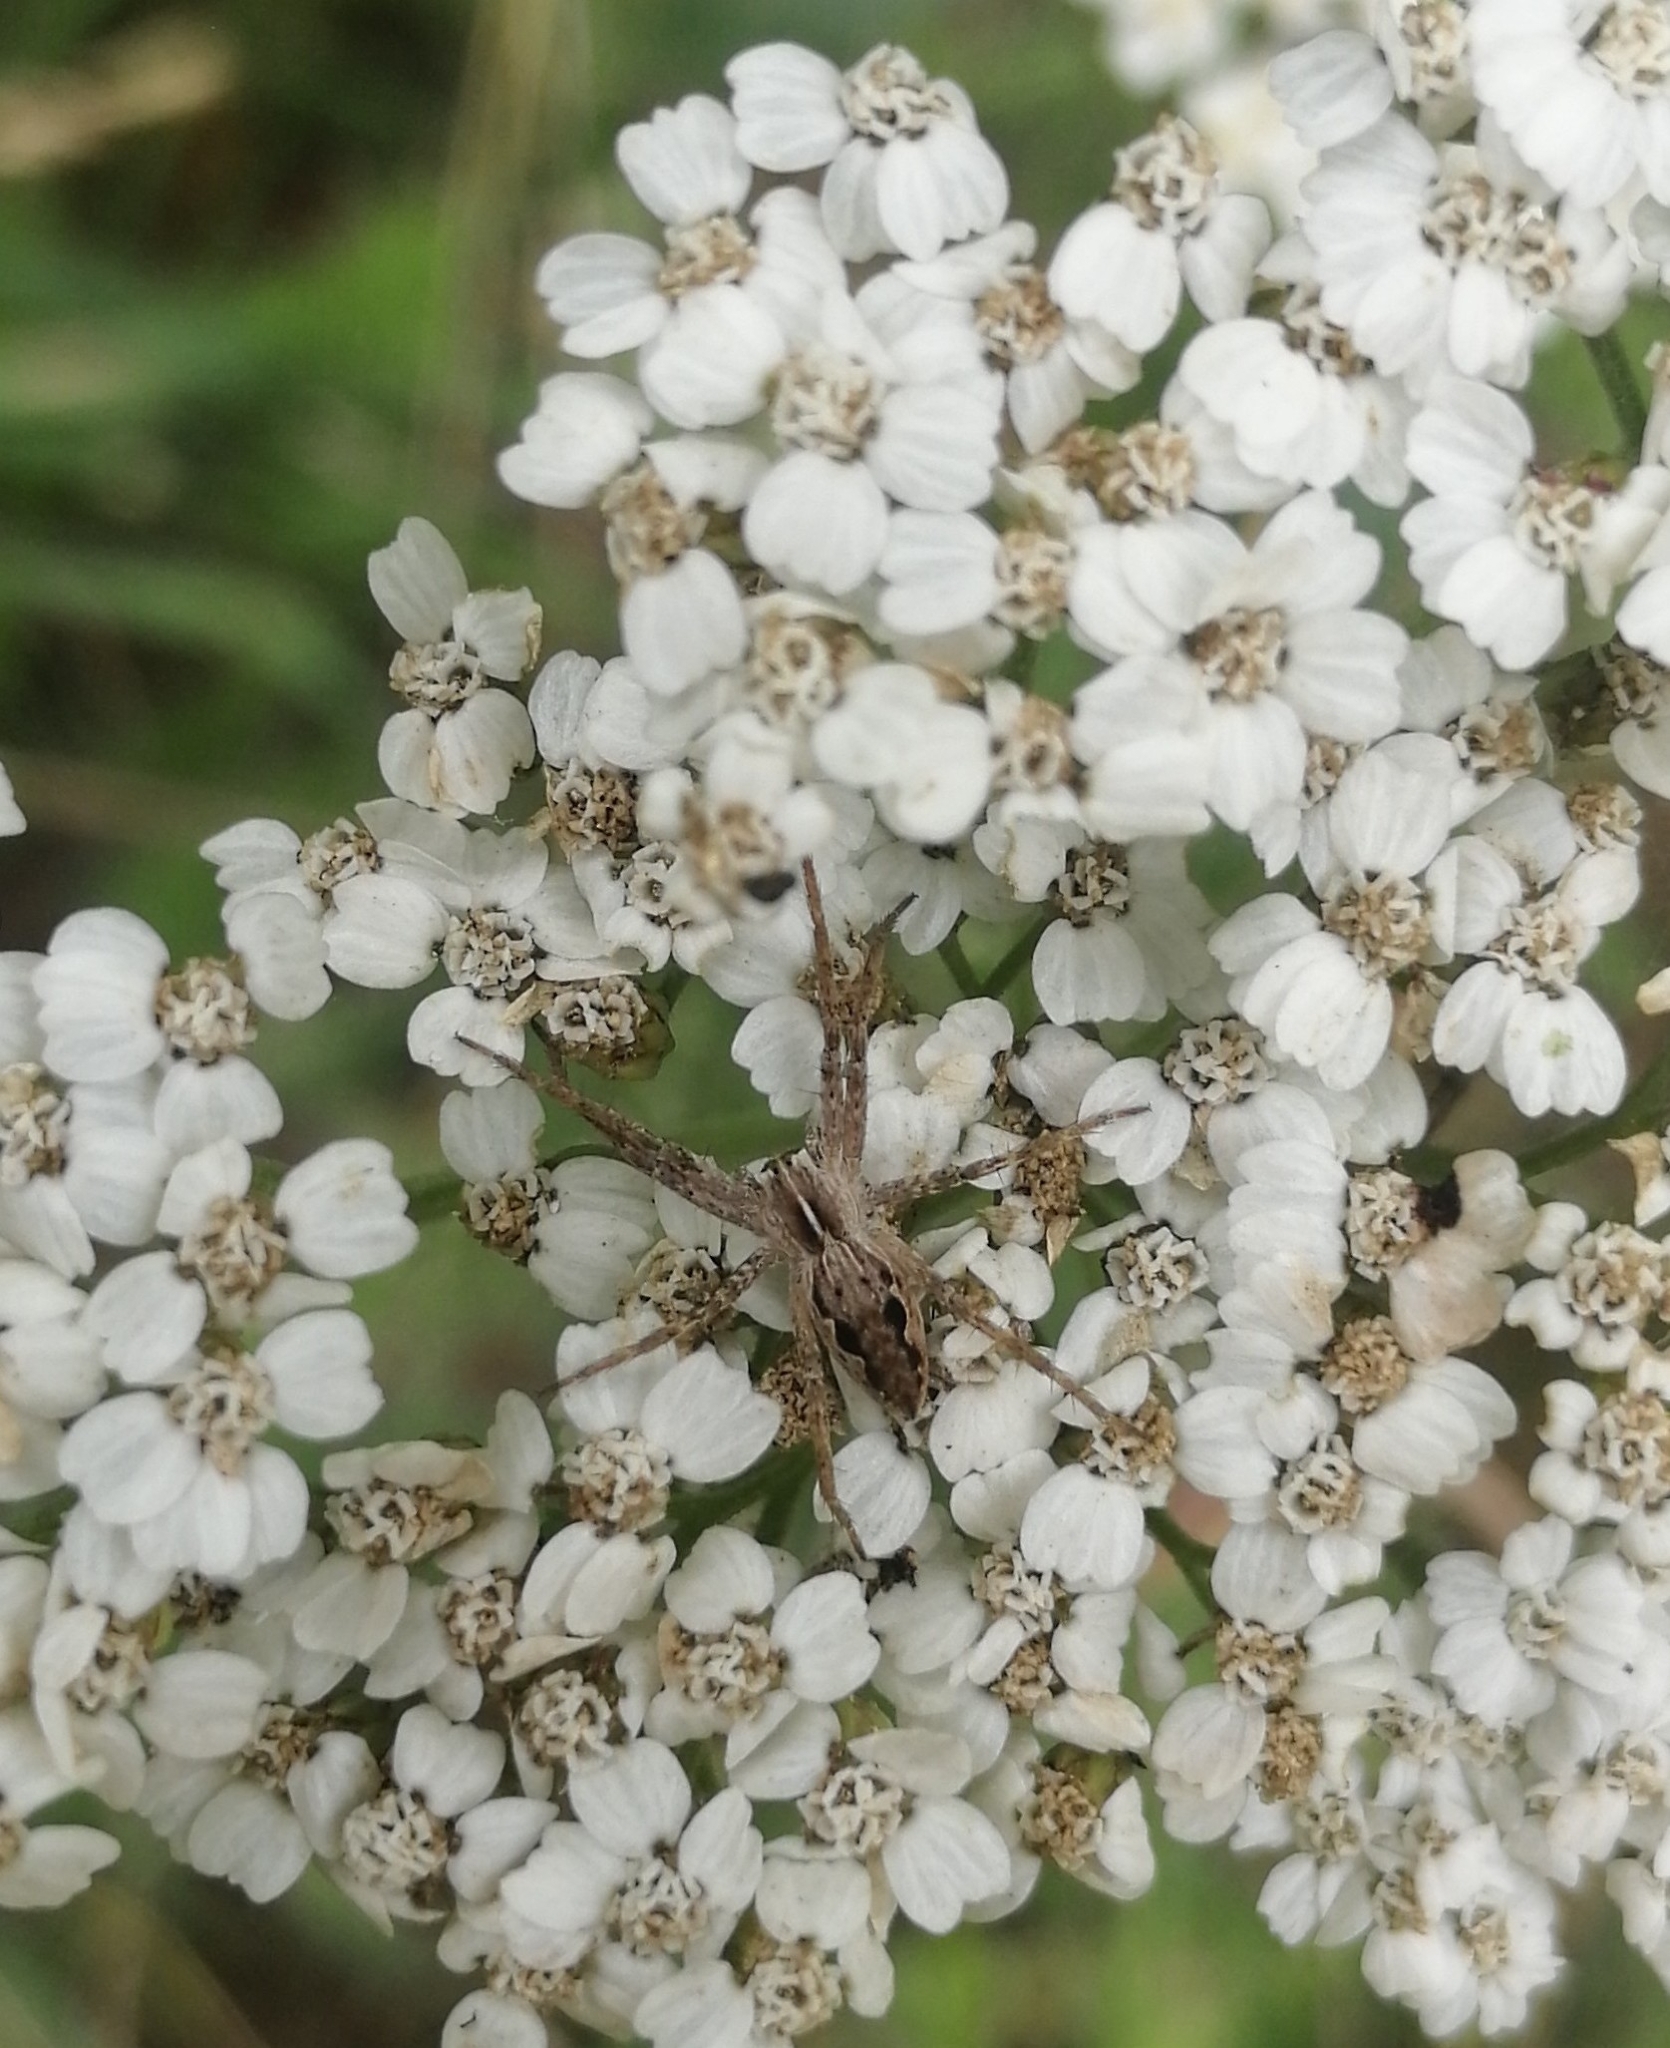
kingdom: Animalia
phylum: Arthropoda
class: Arachnida
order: Araneae
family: Pisauridae
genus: Pisaura
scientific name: Pisaura mirabilis
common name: Tent spider
